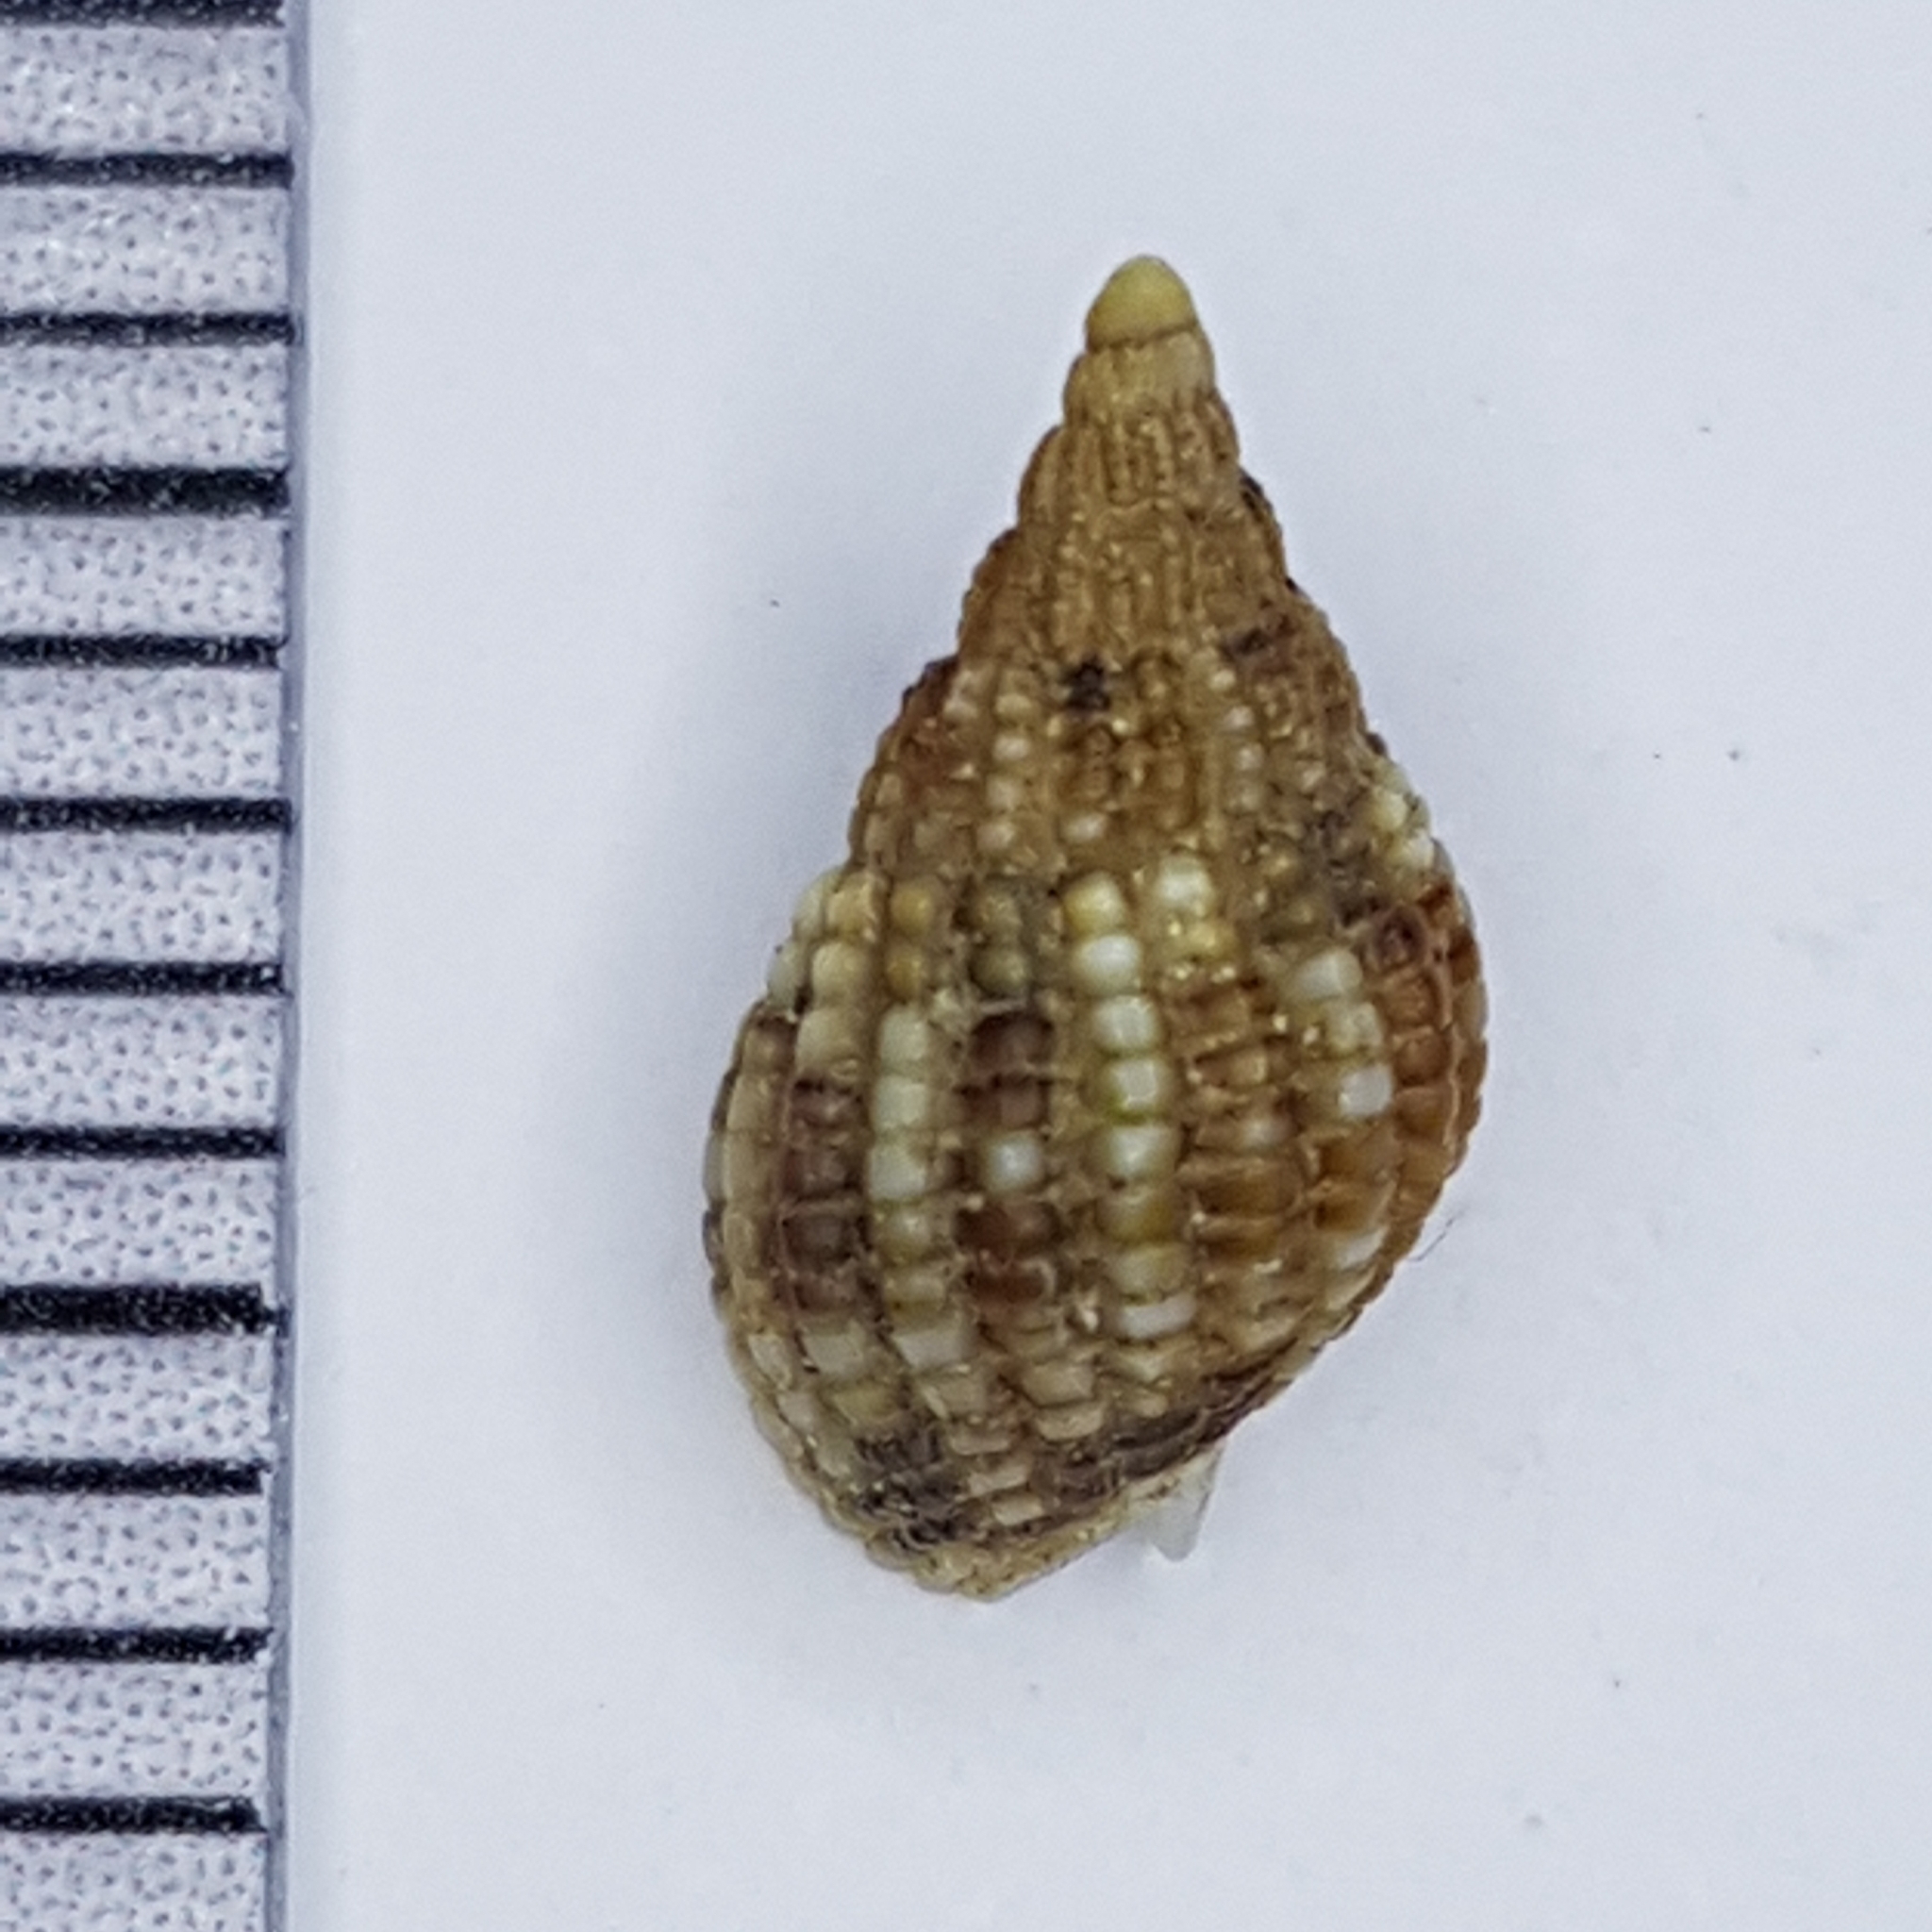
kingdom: Animalia
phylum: Mollusca
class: Gastropoda
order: Neogastropoda
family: Nassariidae
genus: Tritia
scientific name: Tritia reticulata
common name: Netted dog whelk
